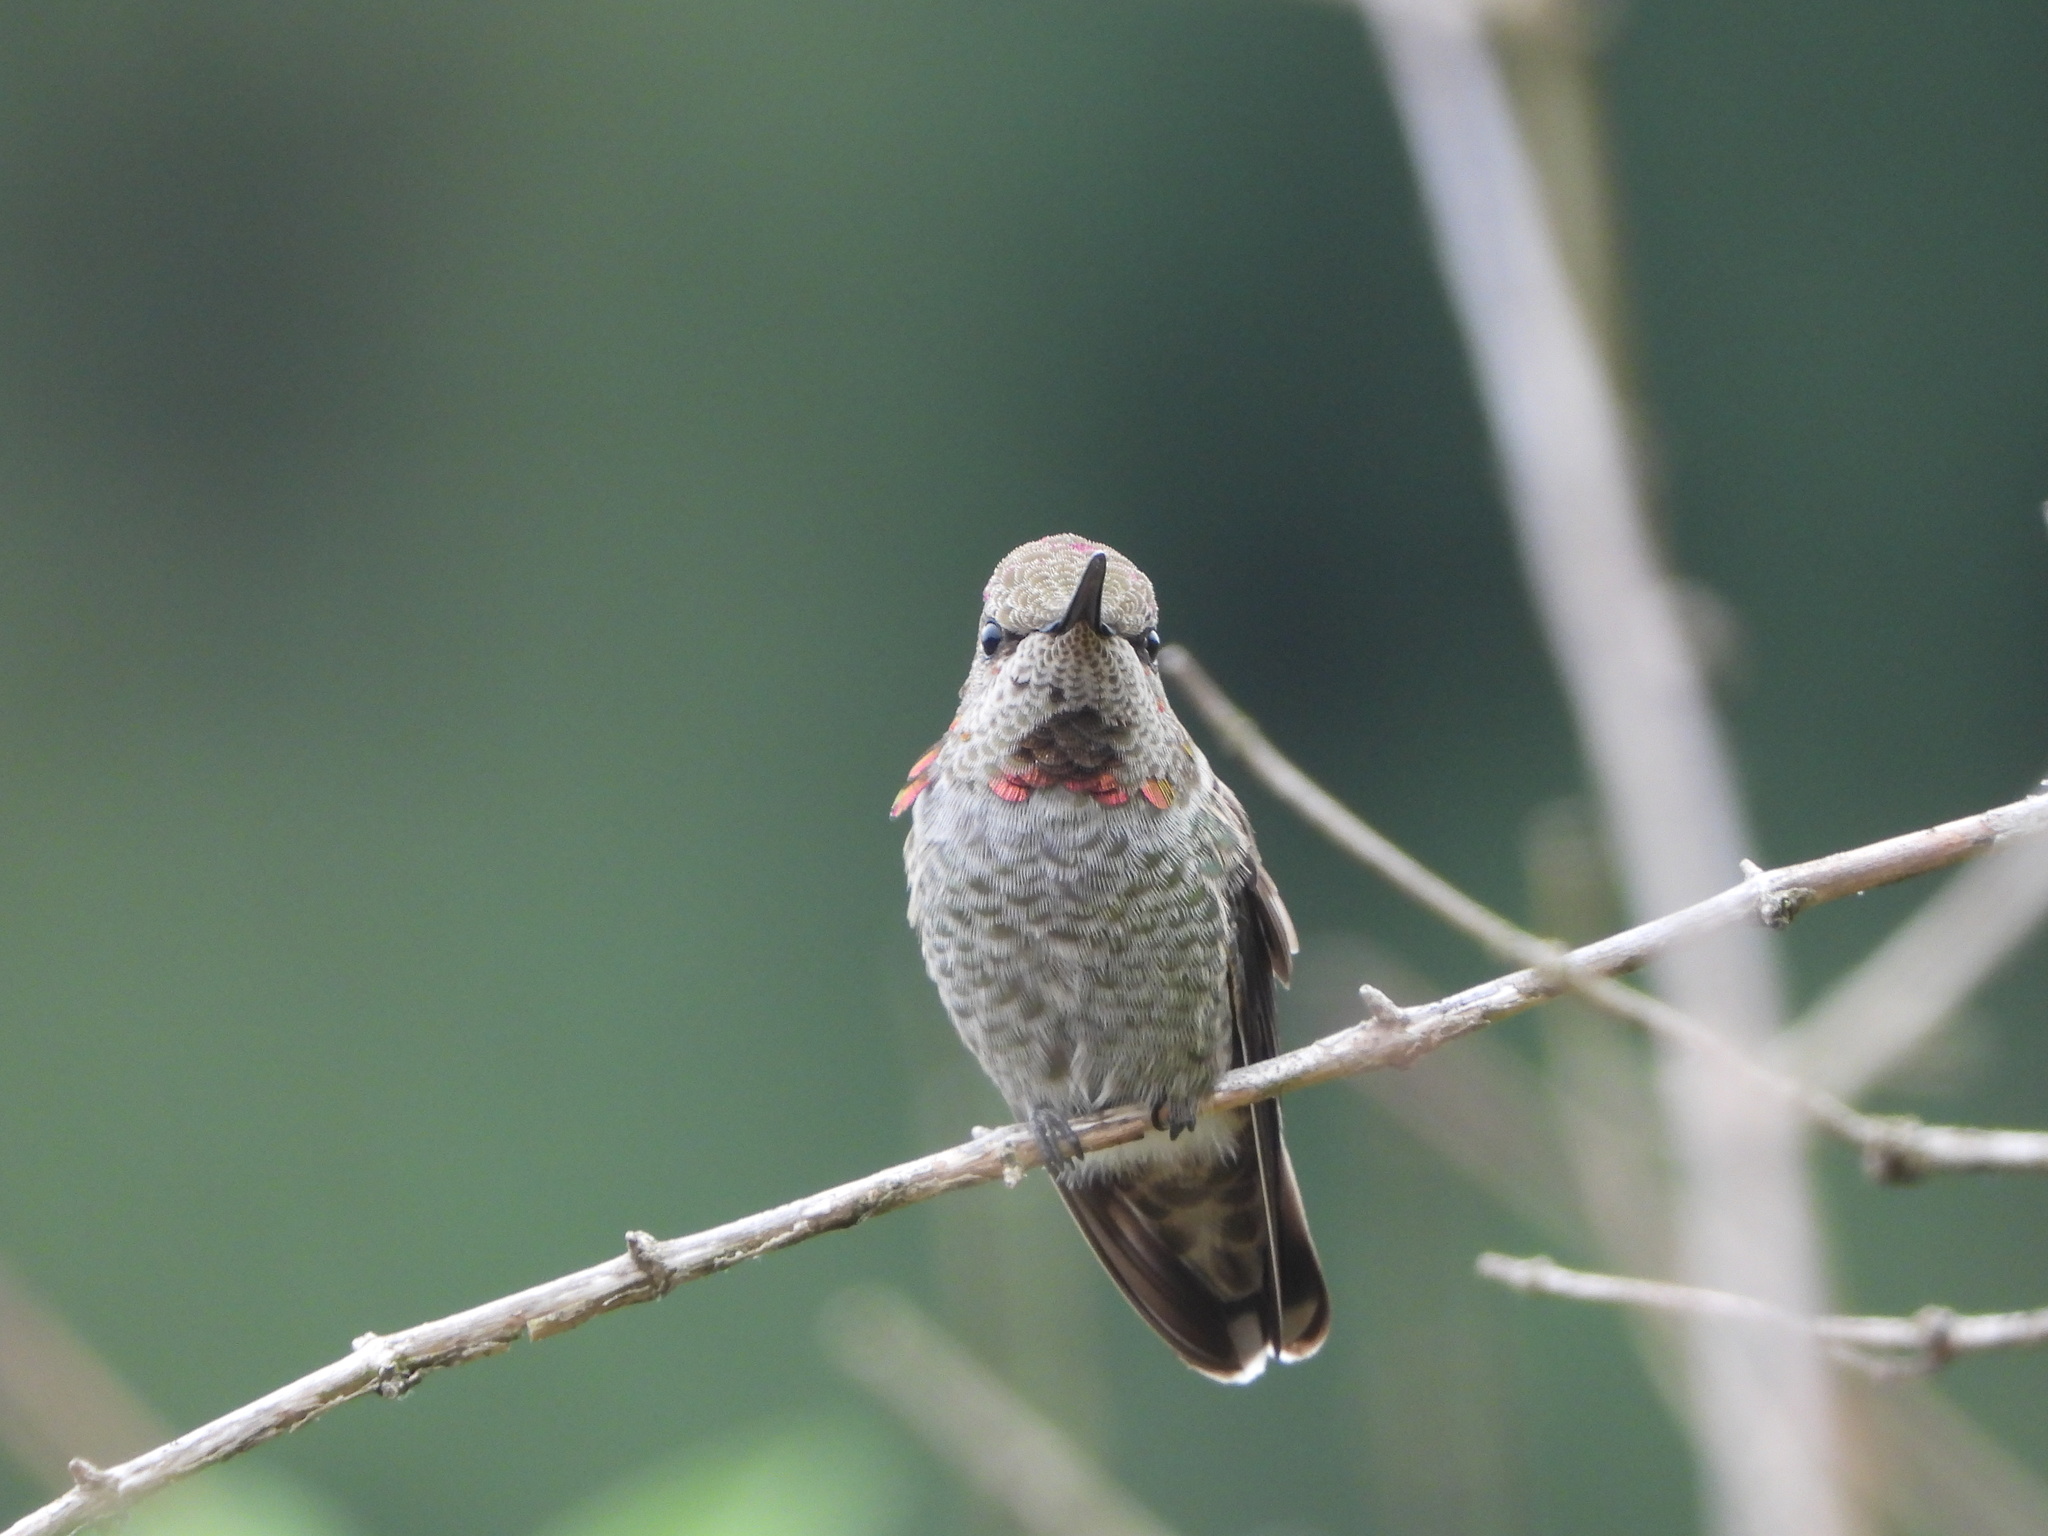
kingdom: Animalia
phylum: Chordata
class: Aves
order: Apodiformes
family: Trochilidae
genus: Calypte
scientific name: Calypte anna
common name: Anna's hummingbird
